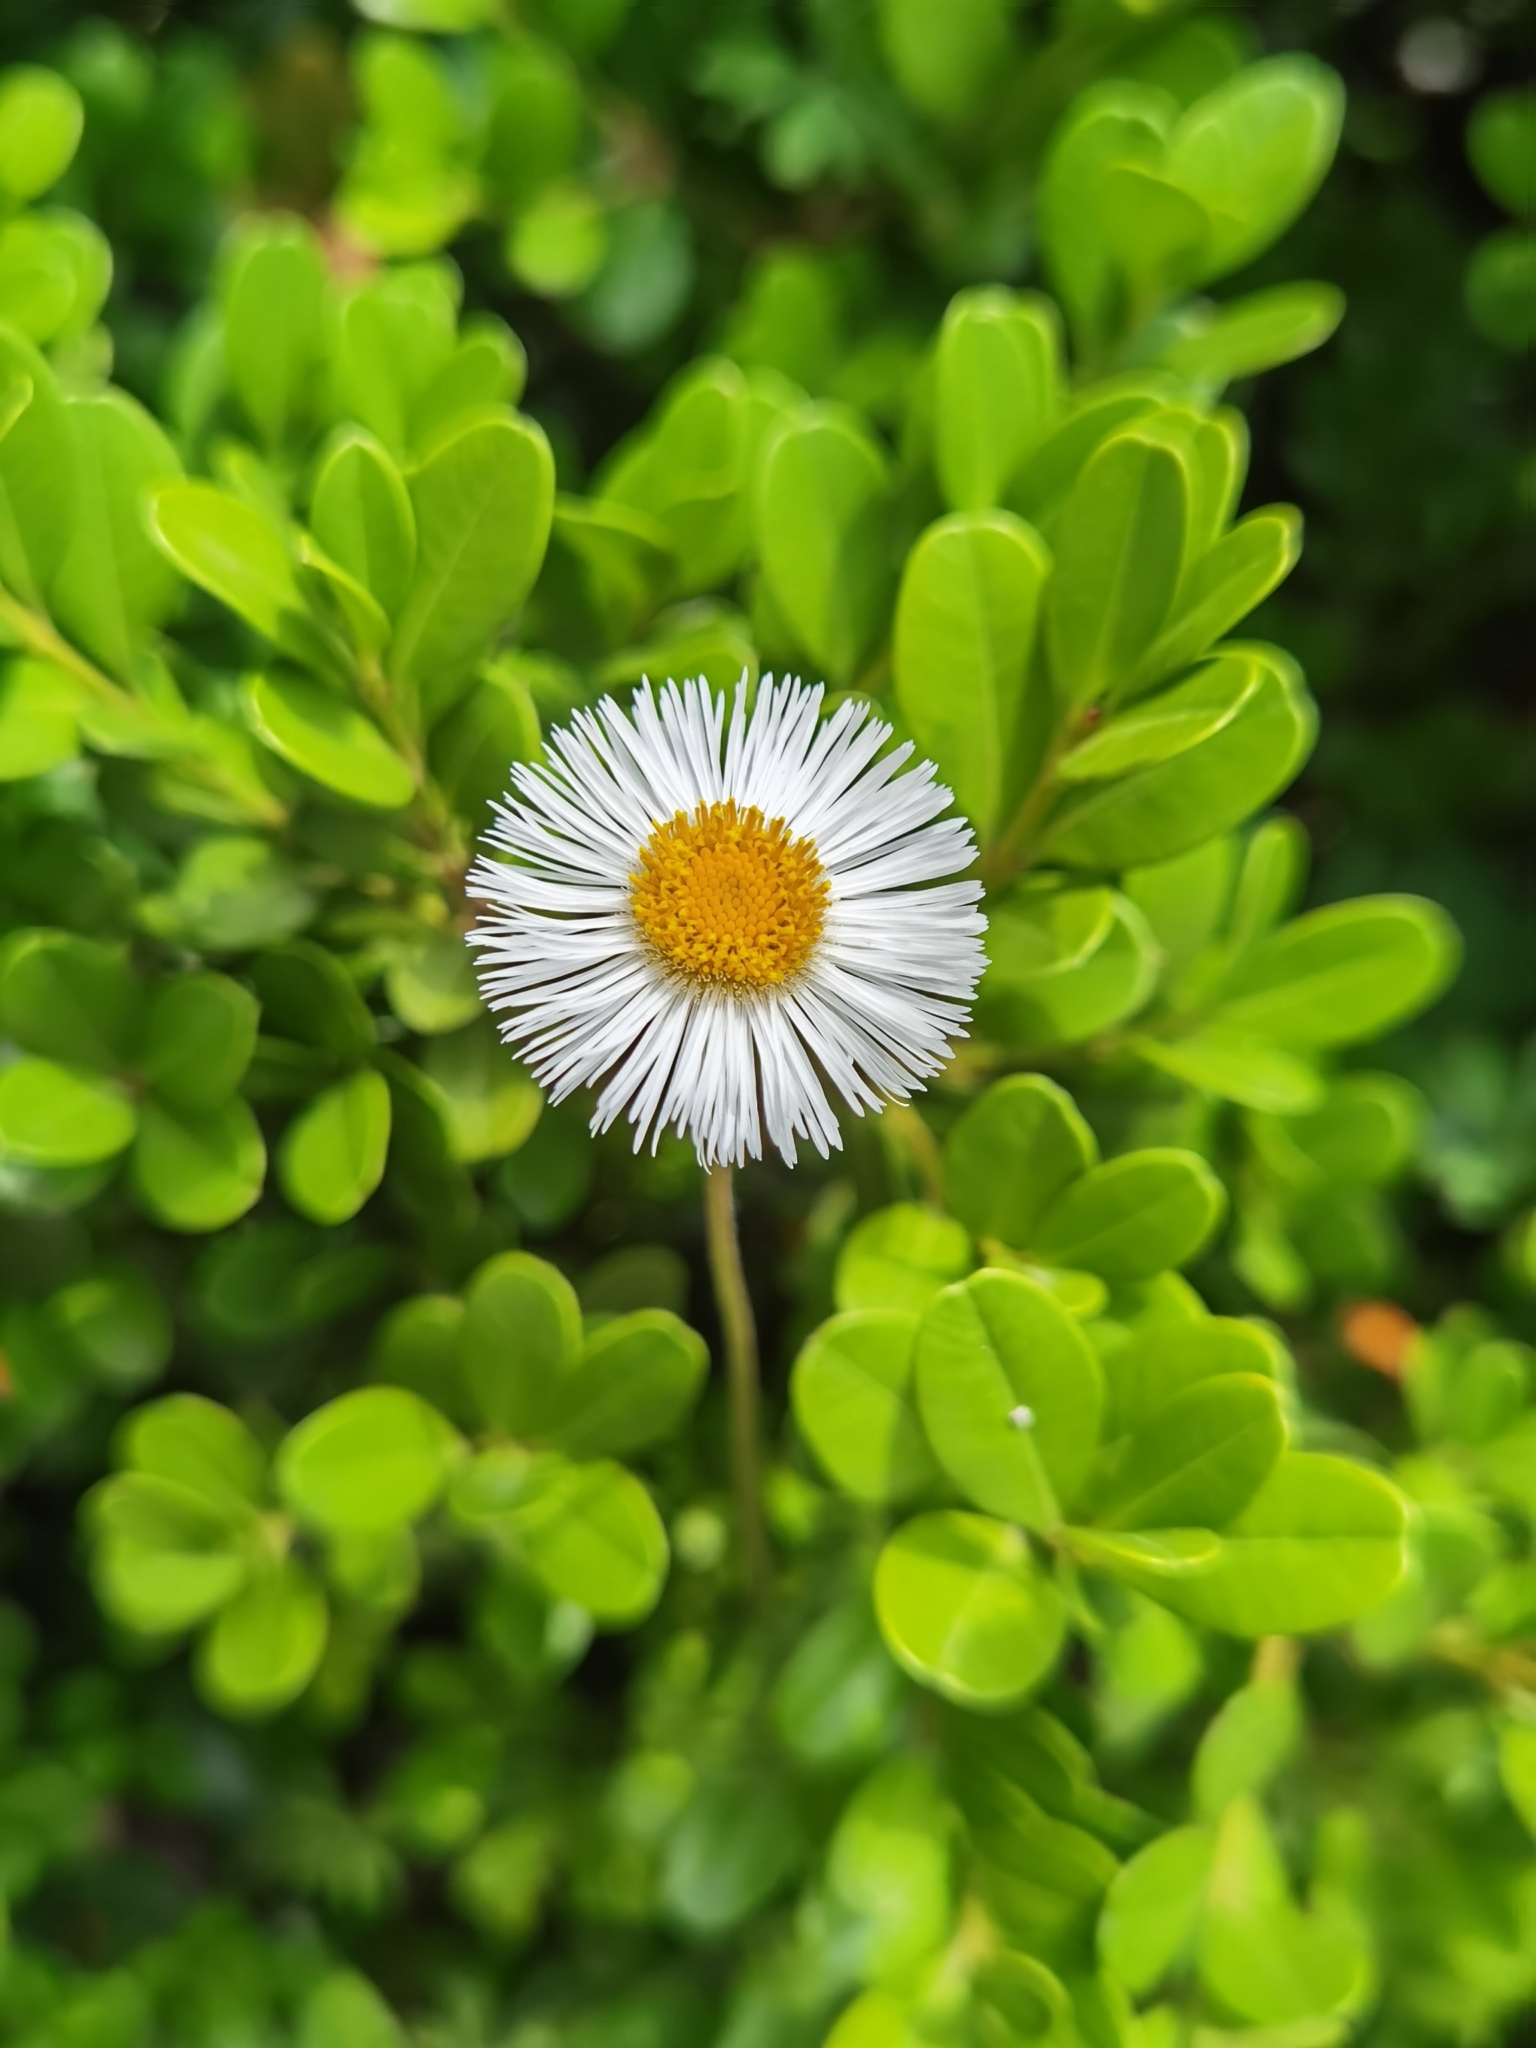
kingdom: Plantae
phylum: Tracheophyta
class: Magnoliopsida
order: Asterales
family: Asteraceae
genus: Erigeron
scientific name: Erigeron longipes
